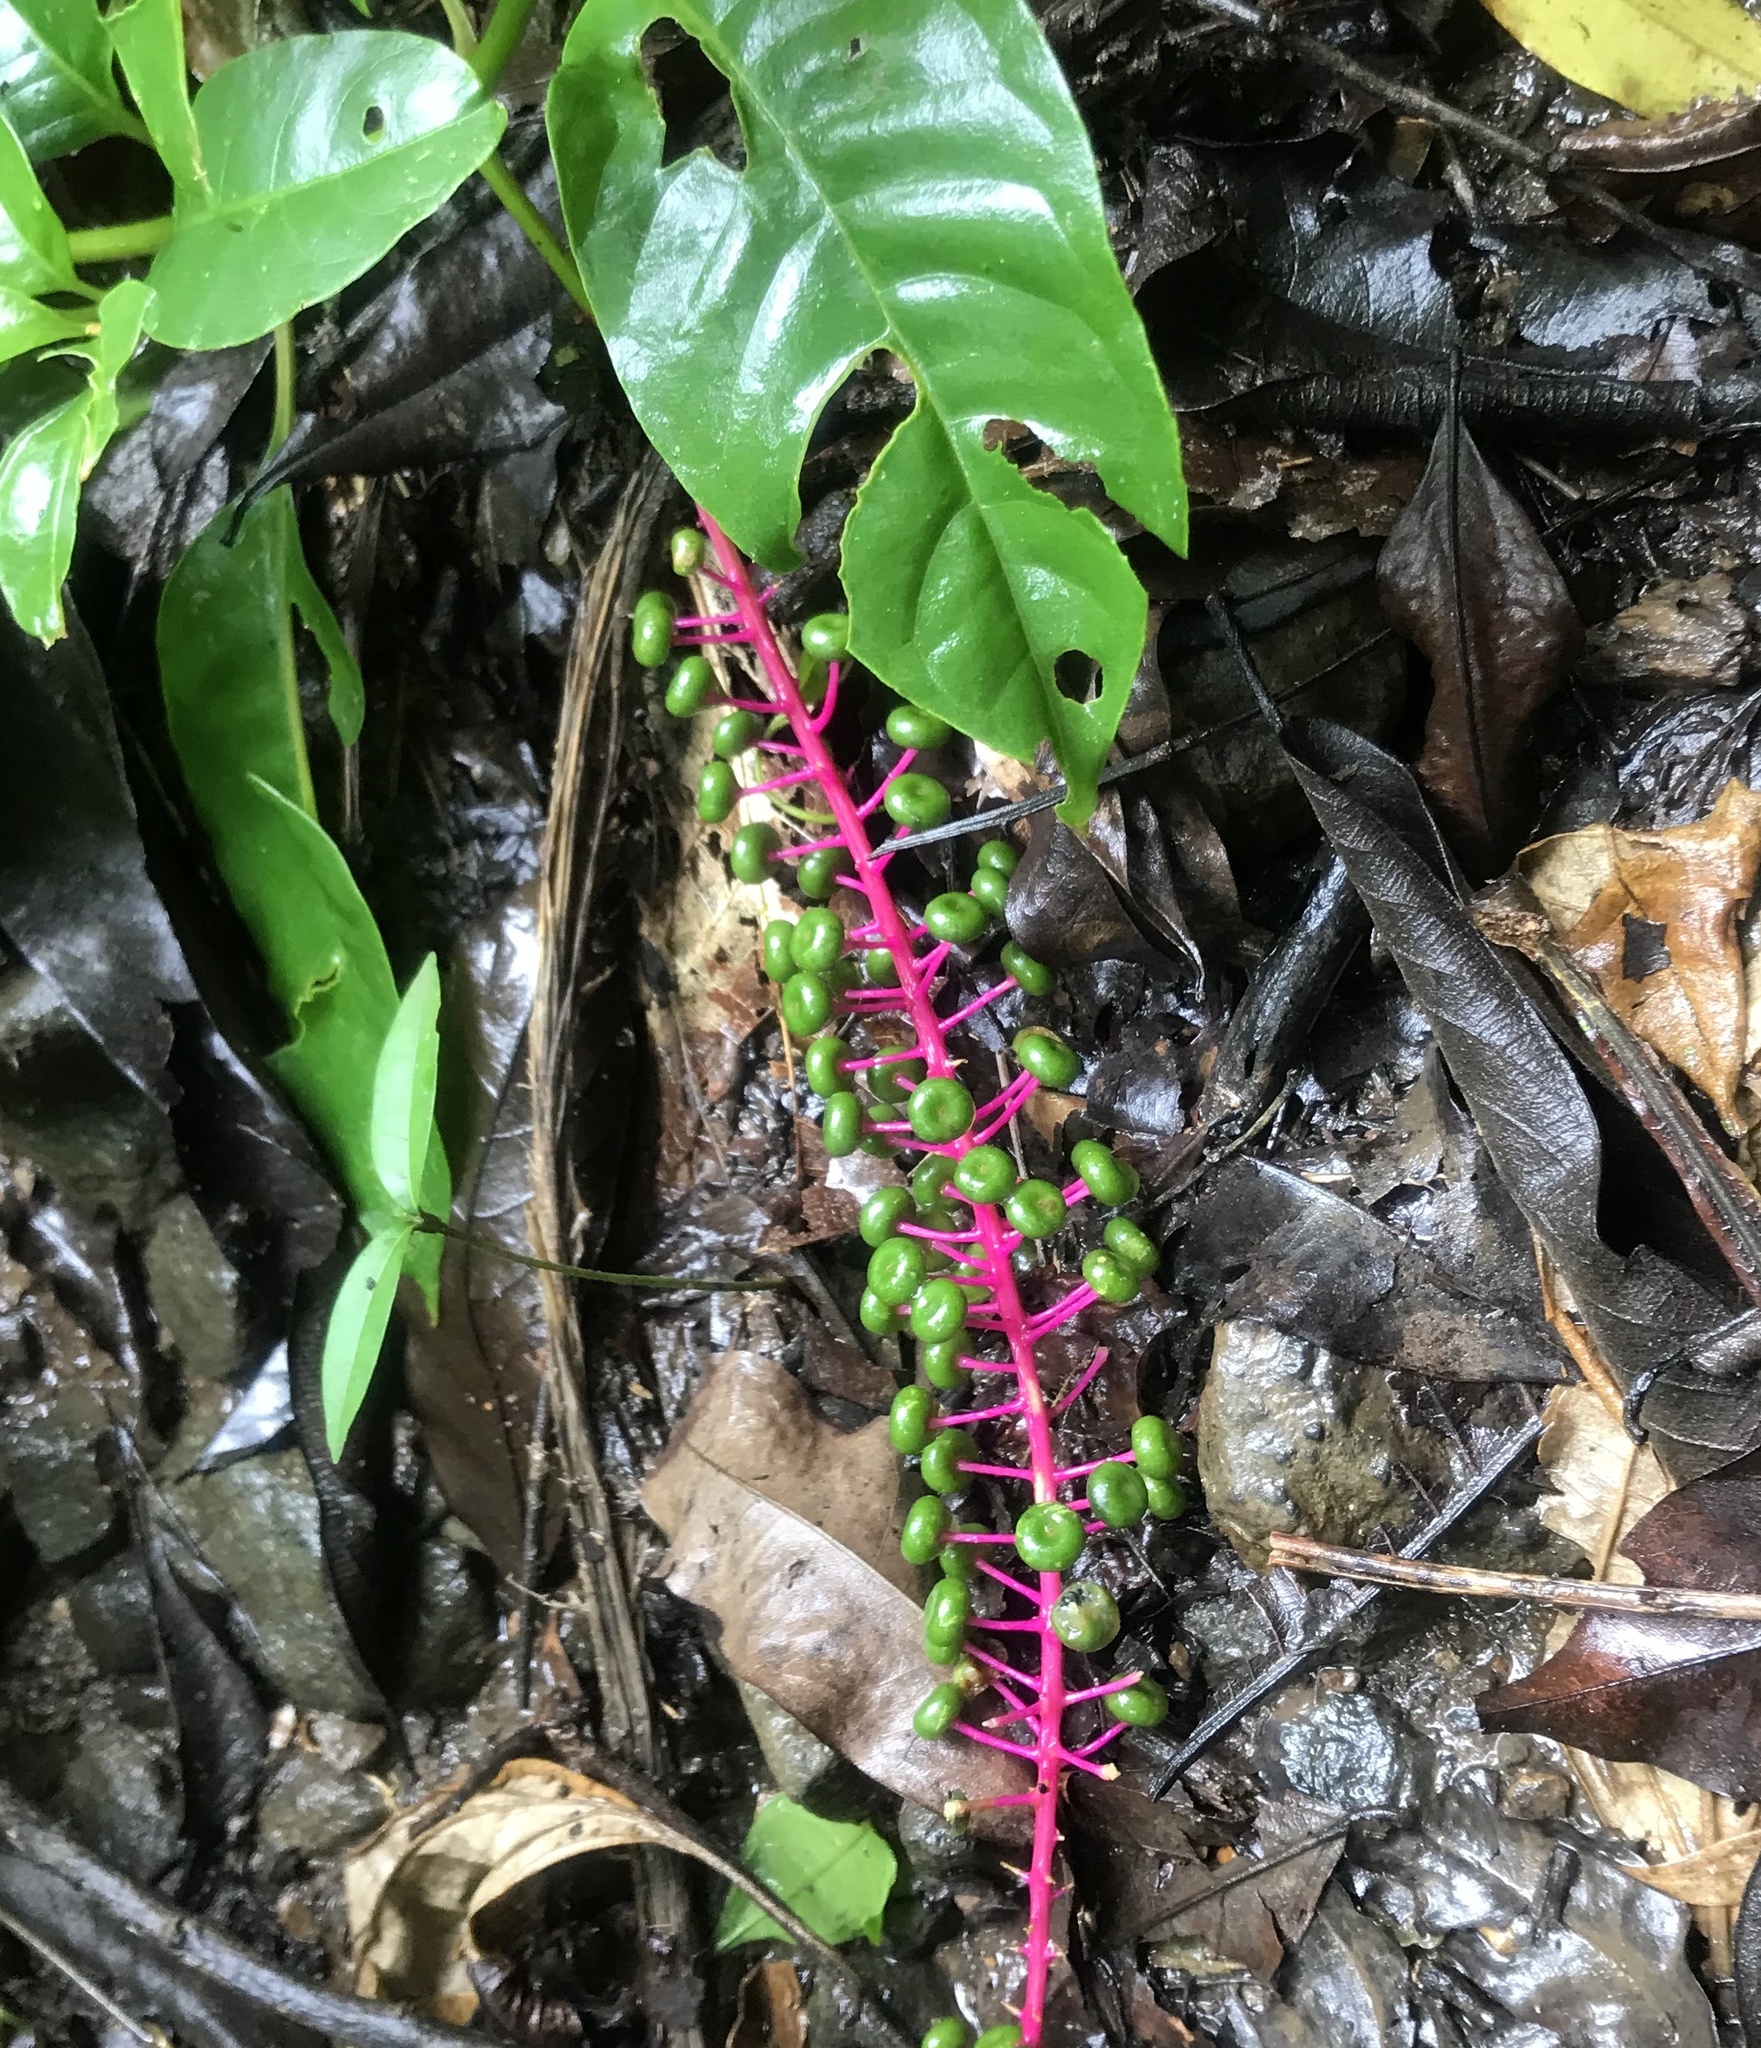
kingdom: Plantae
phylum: Tracheophyta
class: Magnoliopsida
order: Caryophyllales
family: Phytolaccaceae
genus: Phytolacca
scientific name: Phytolacca rivinoides
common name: Venezuelan pokeweed
